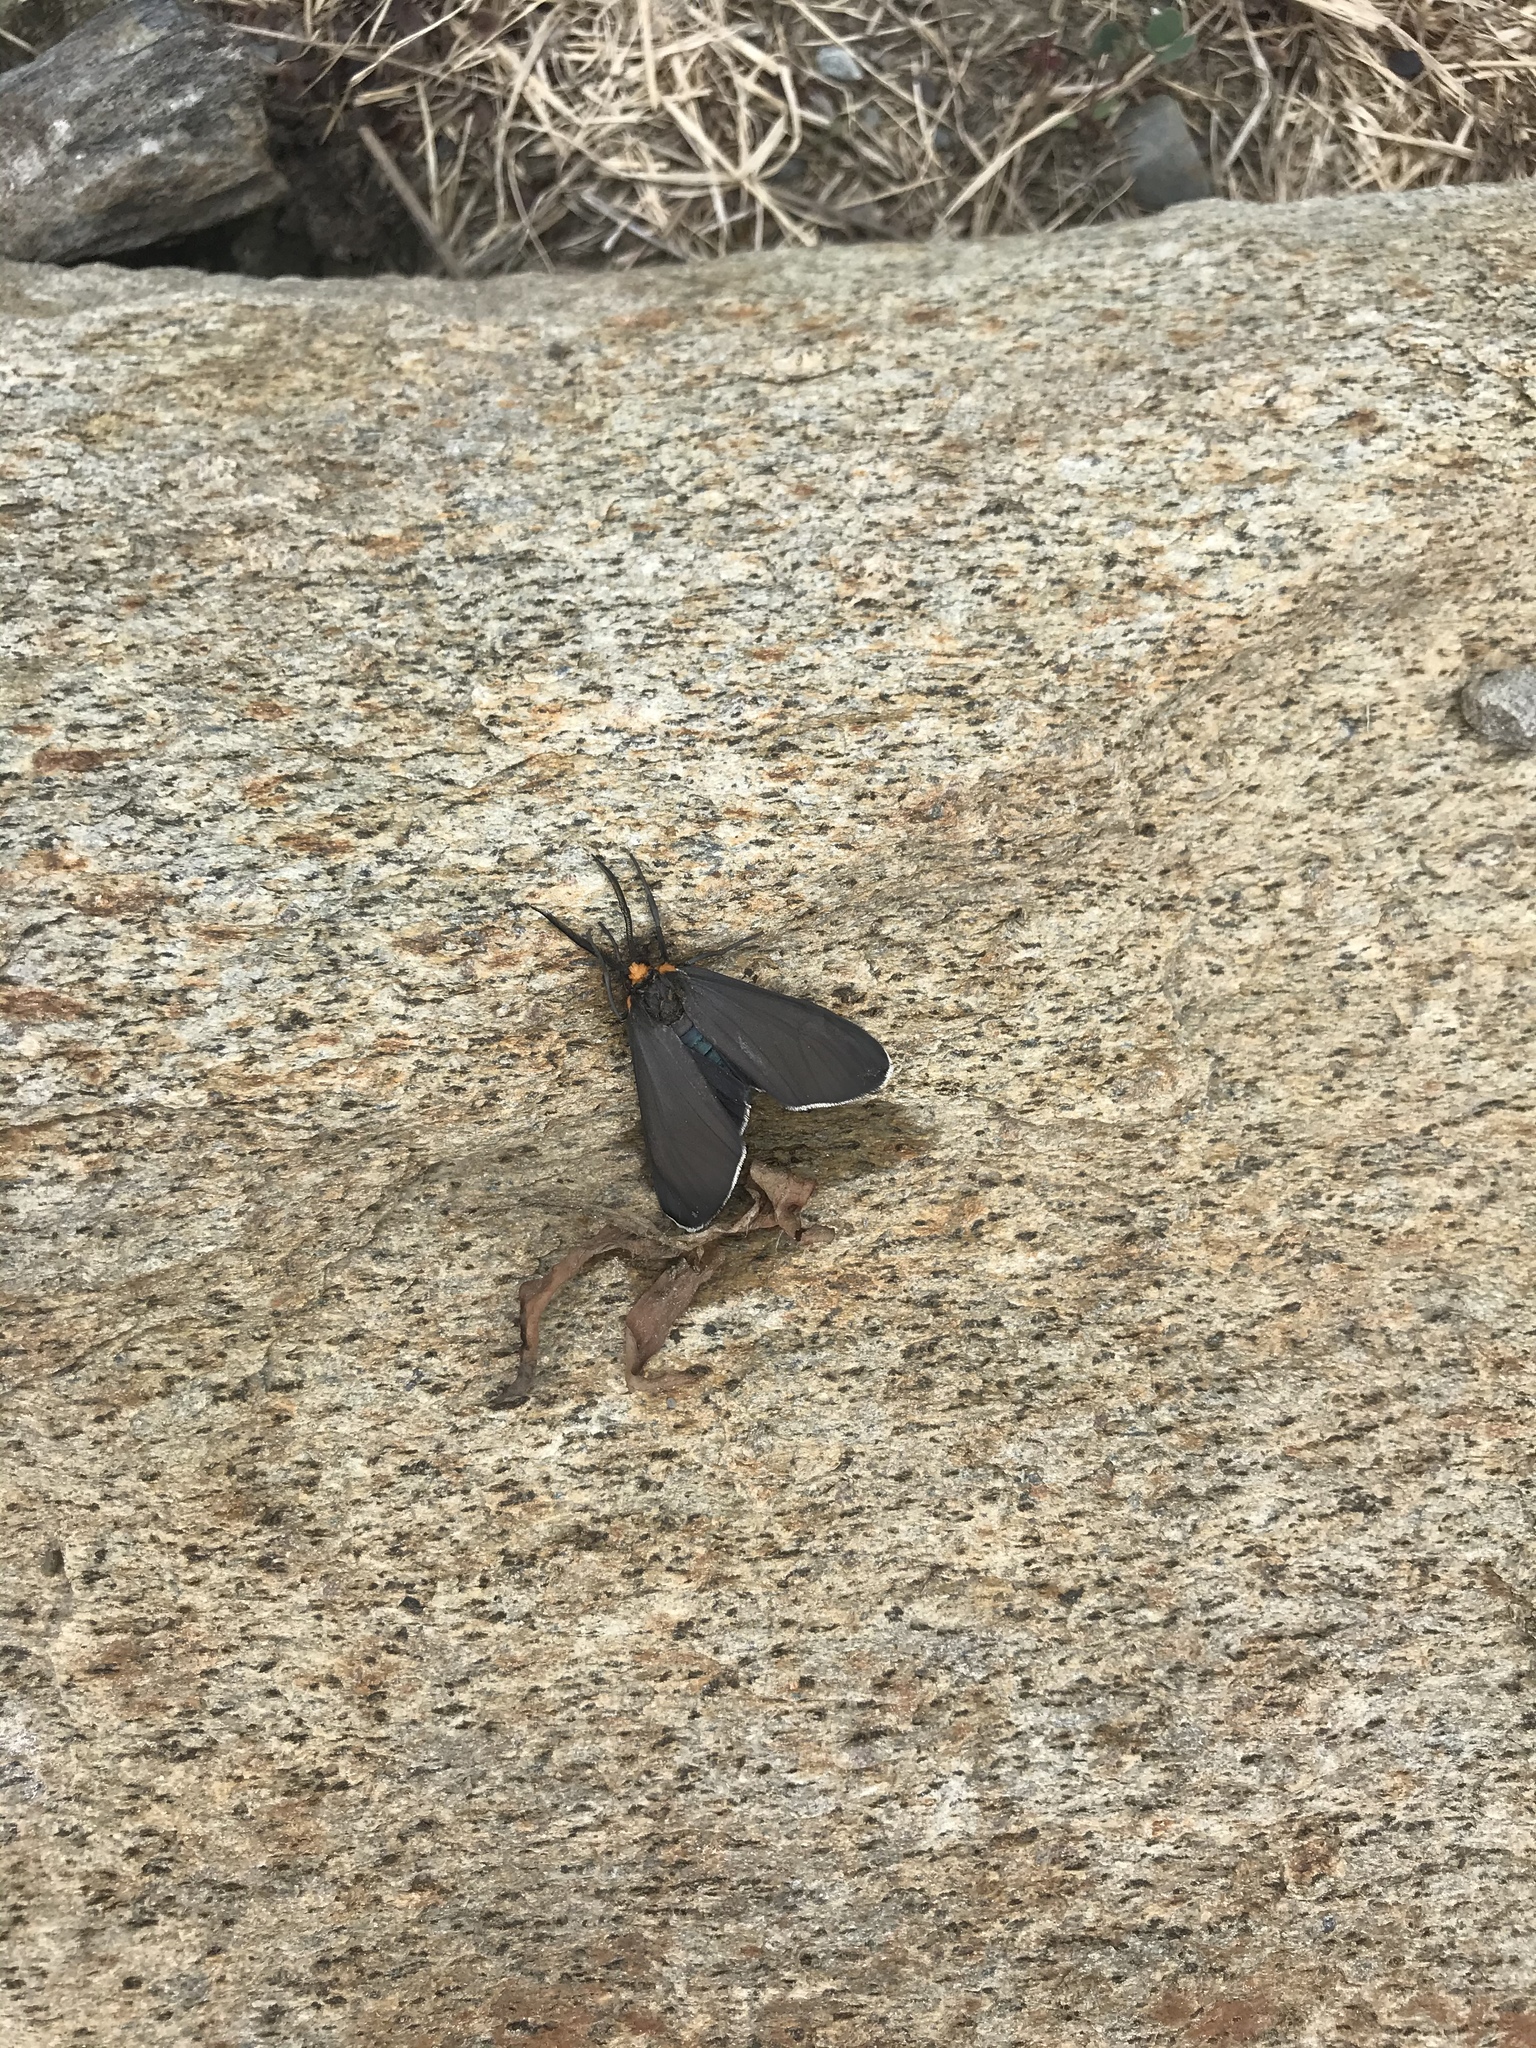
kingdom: Animalia
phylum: Arthropoda
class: Insecta
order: Lepidoptera
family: Erebidae
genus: Cisseps
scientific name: Cisseps fulvicollis
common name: Yellow-collared scape moth
